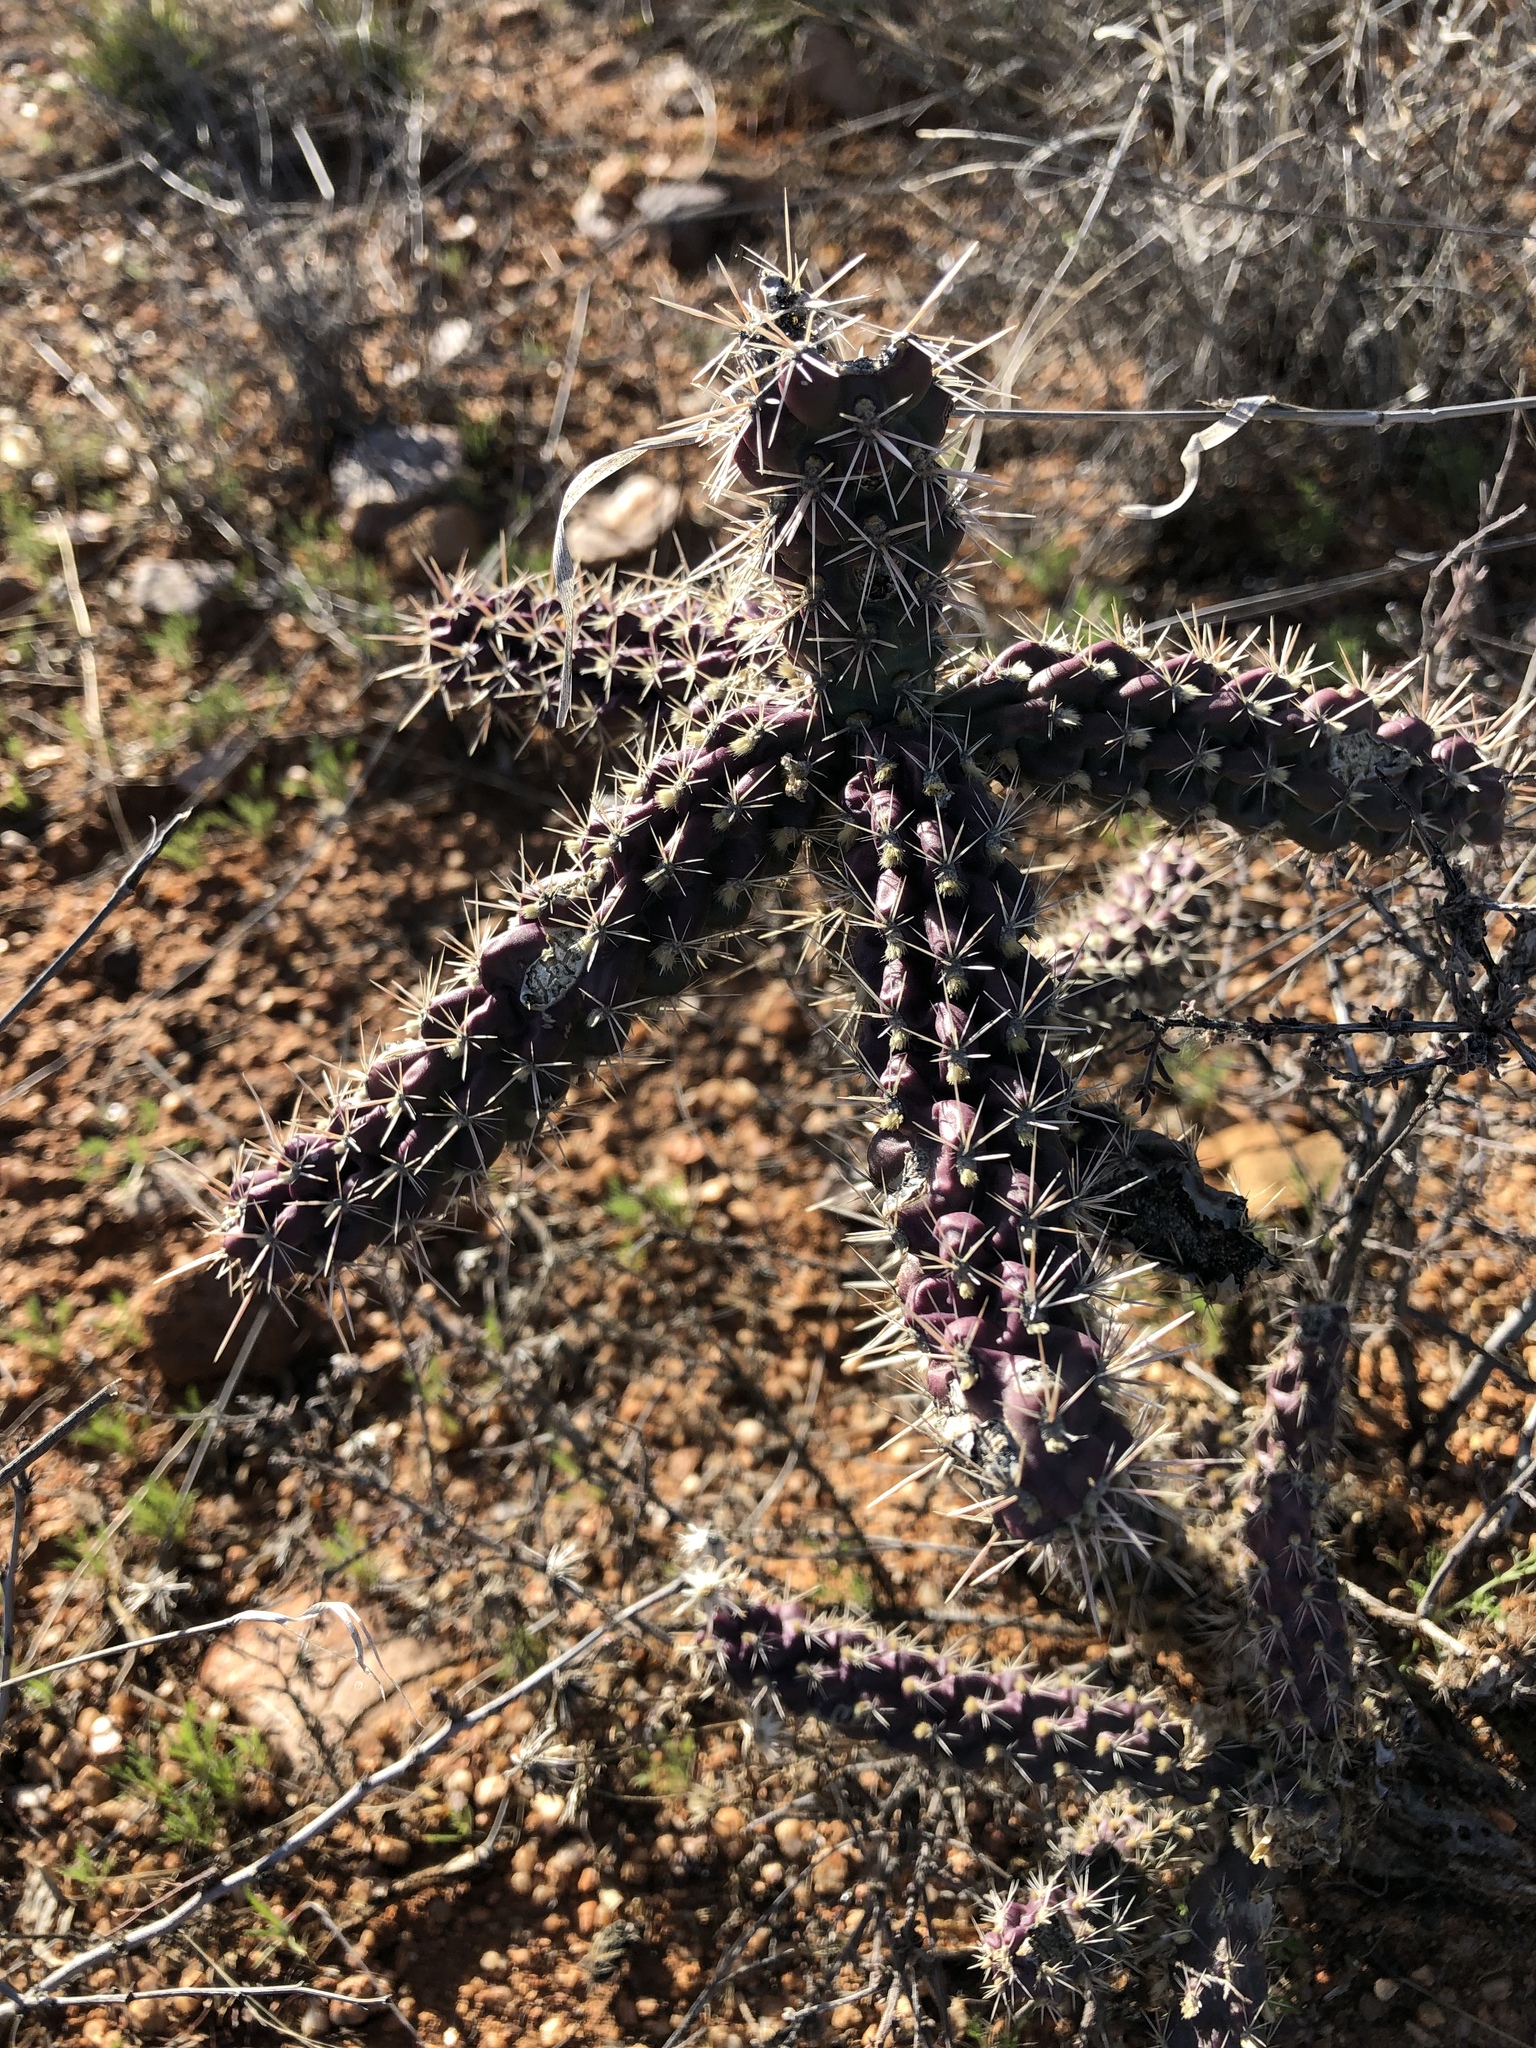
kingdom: Plantae
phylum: Tracheophyta
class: Magnoliopsida
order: Caryophyllales
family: Cactaceae
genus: Cylindropuntia
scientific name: Cylindropuntia imbricata
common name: Candelabrum cactus
